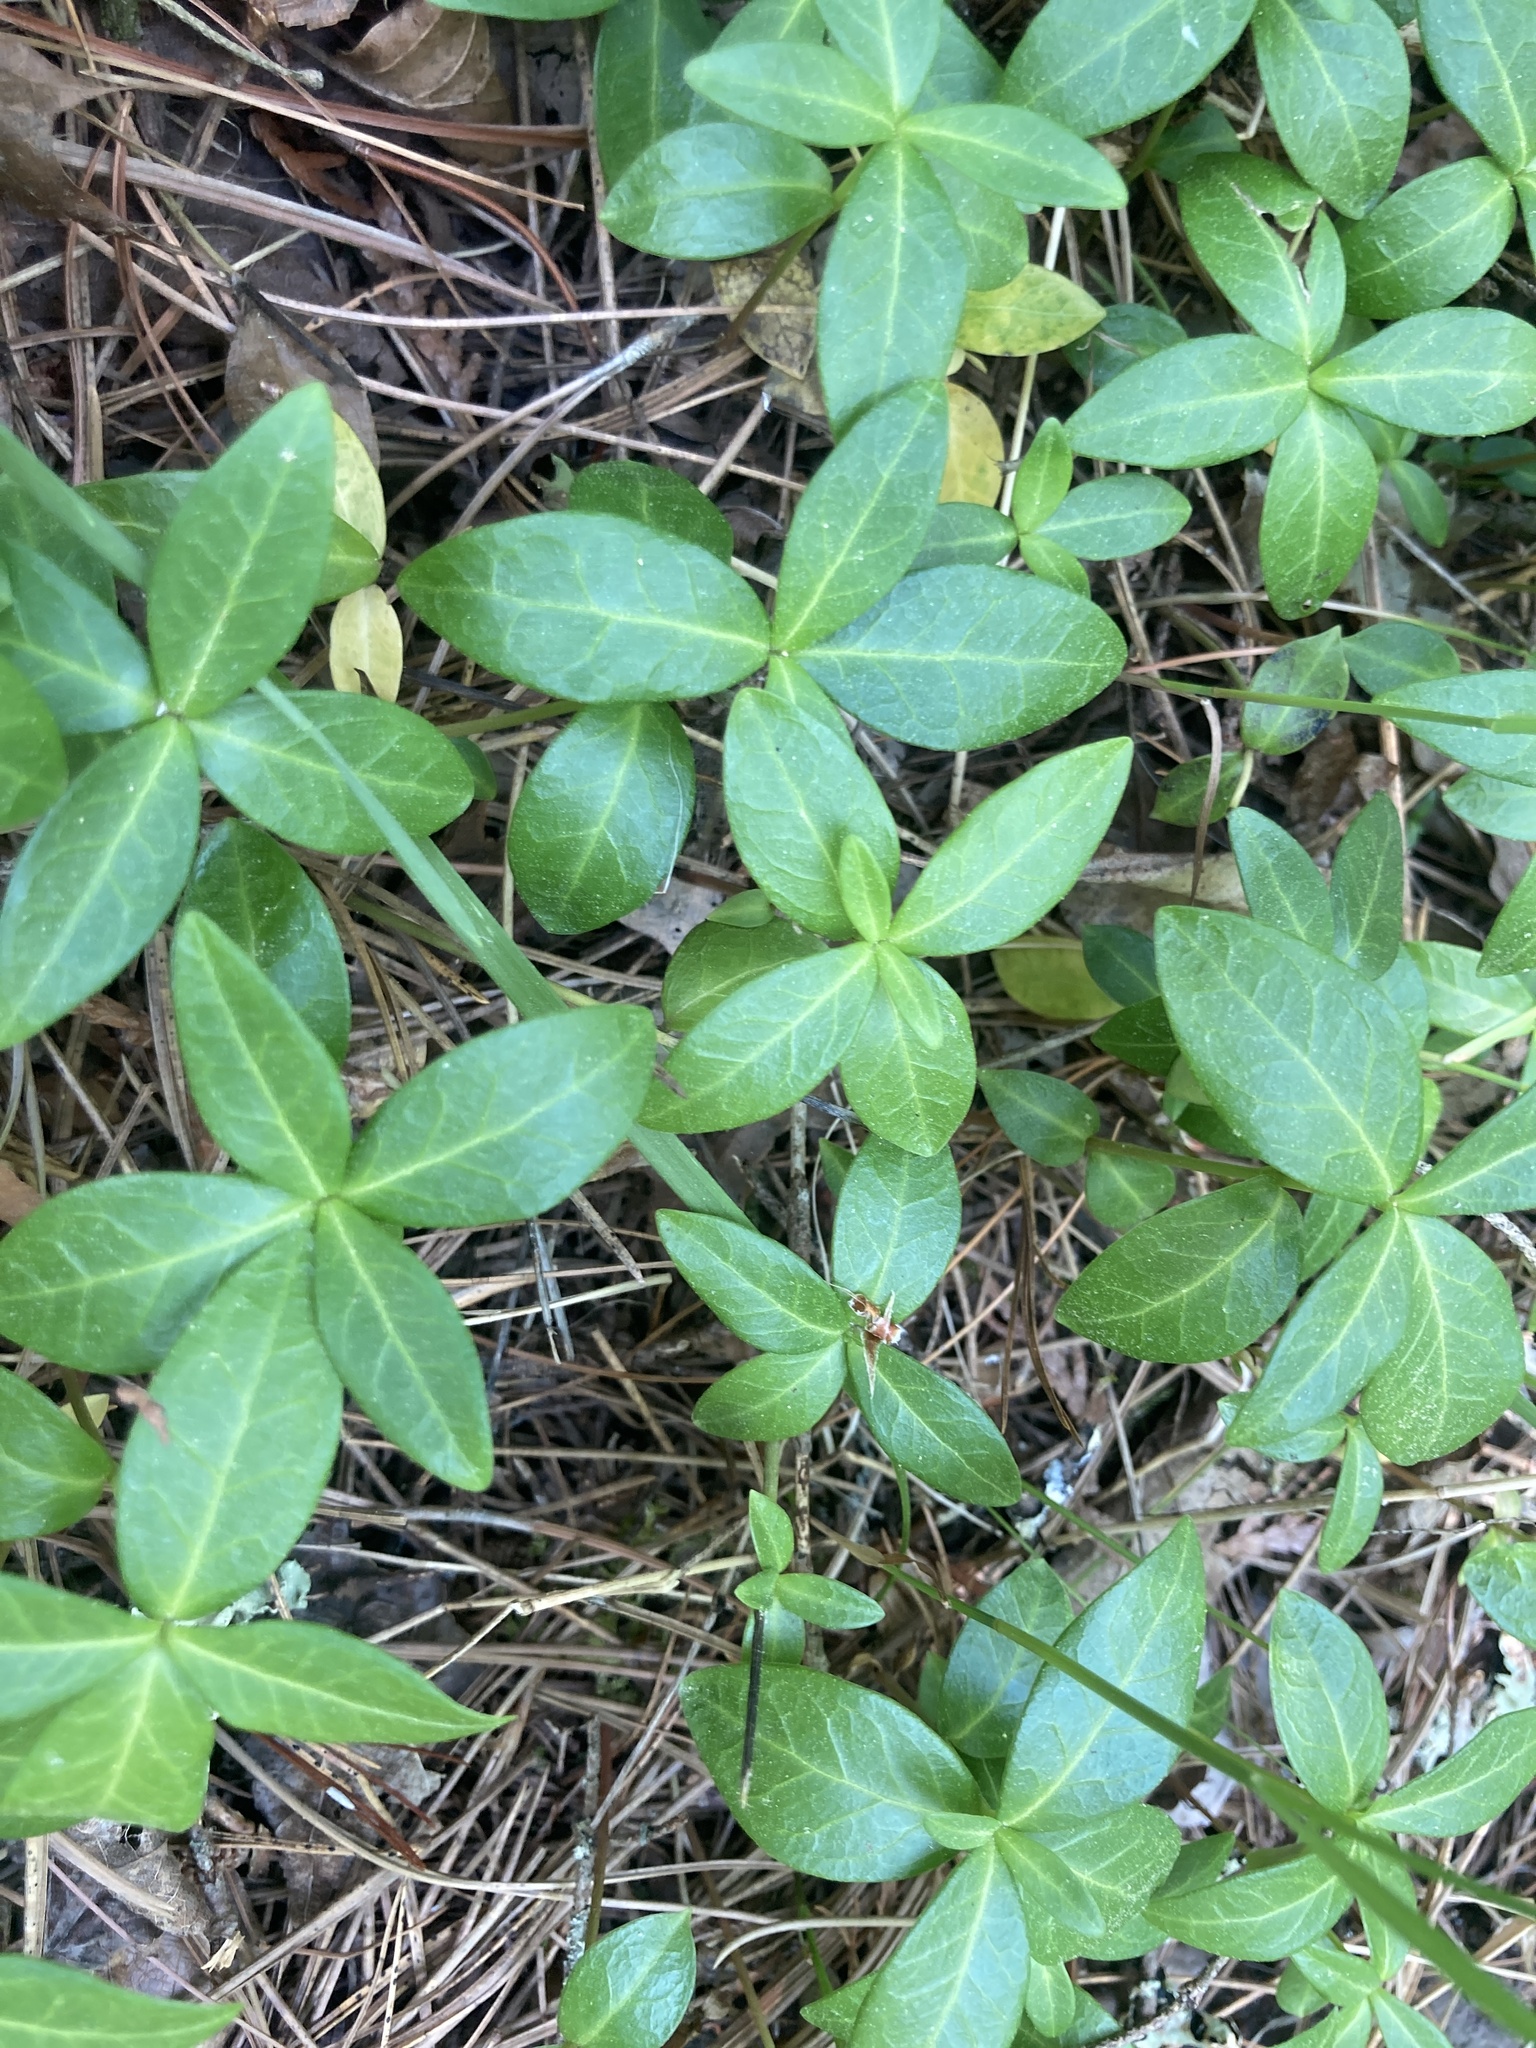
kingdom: Plantae
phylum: Tracheophyta
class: Magnoliopsida
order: Gentianales
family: Apocynaceae
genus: Vinca
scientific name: Vinca minor
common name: Lesser periwinkle
